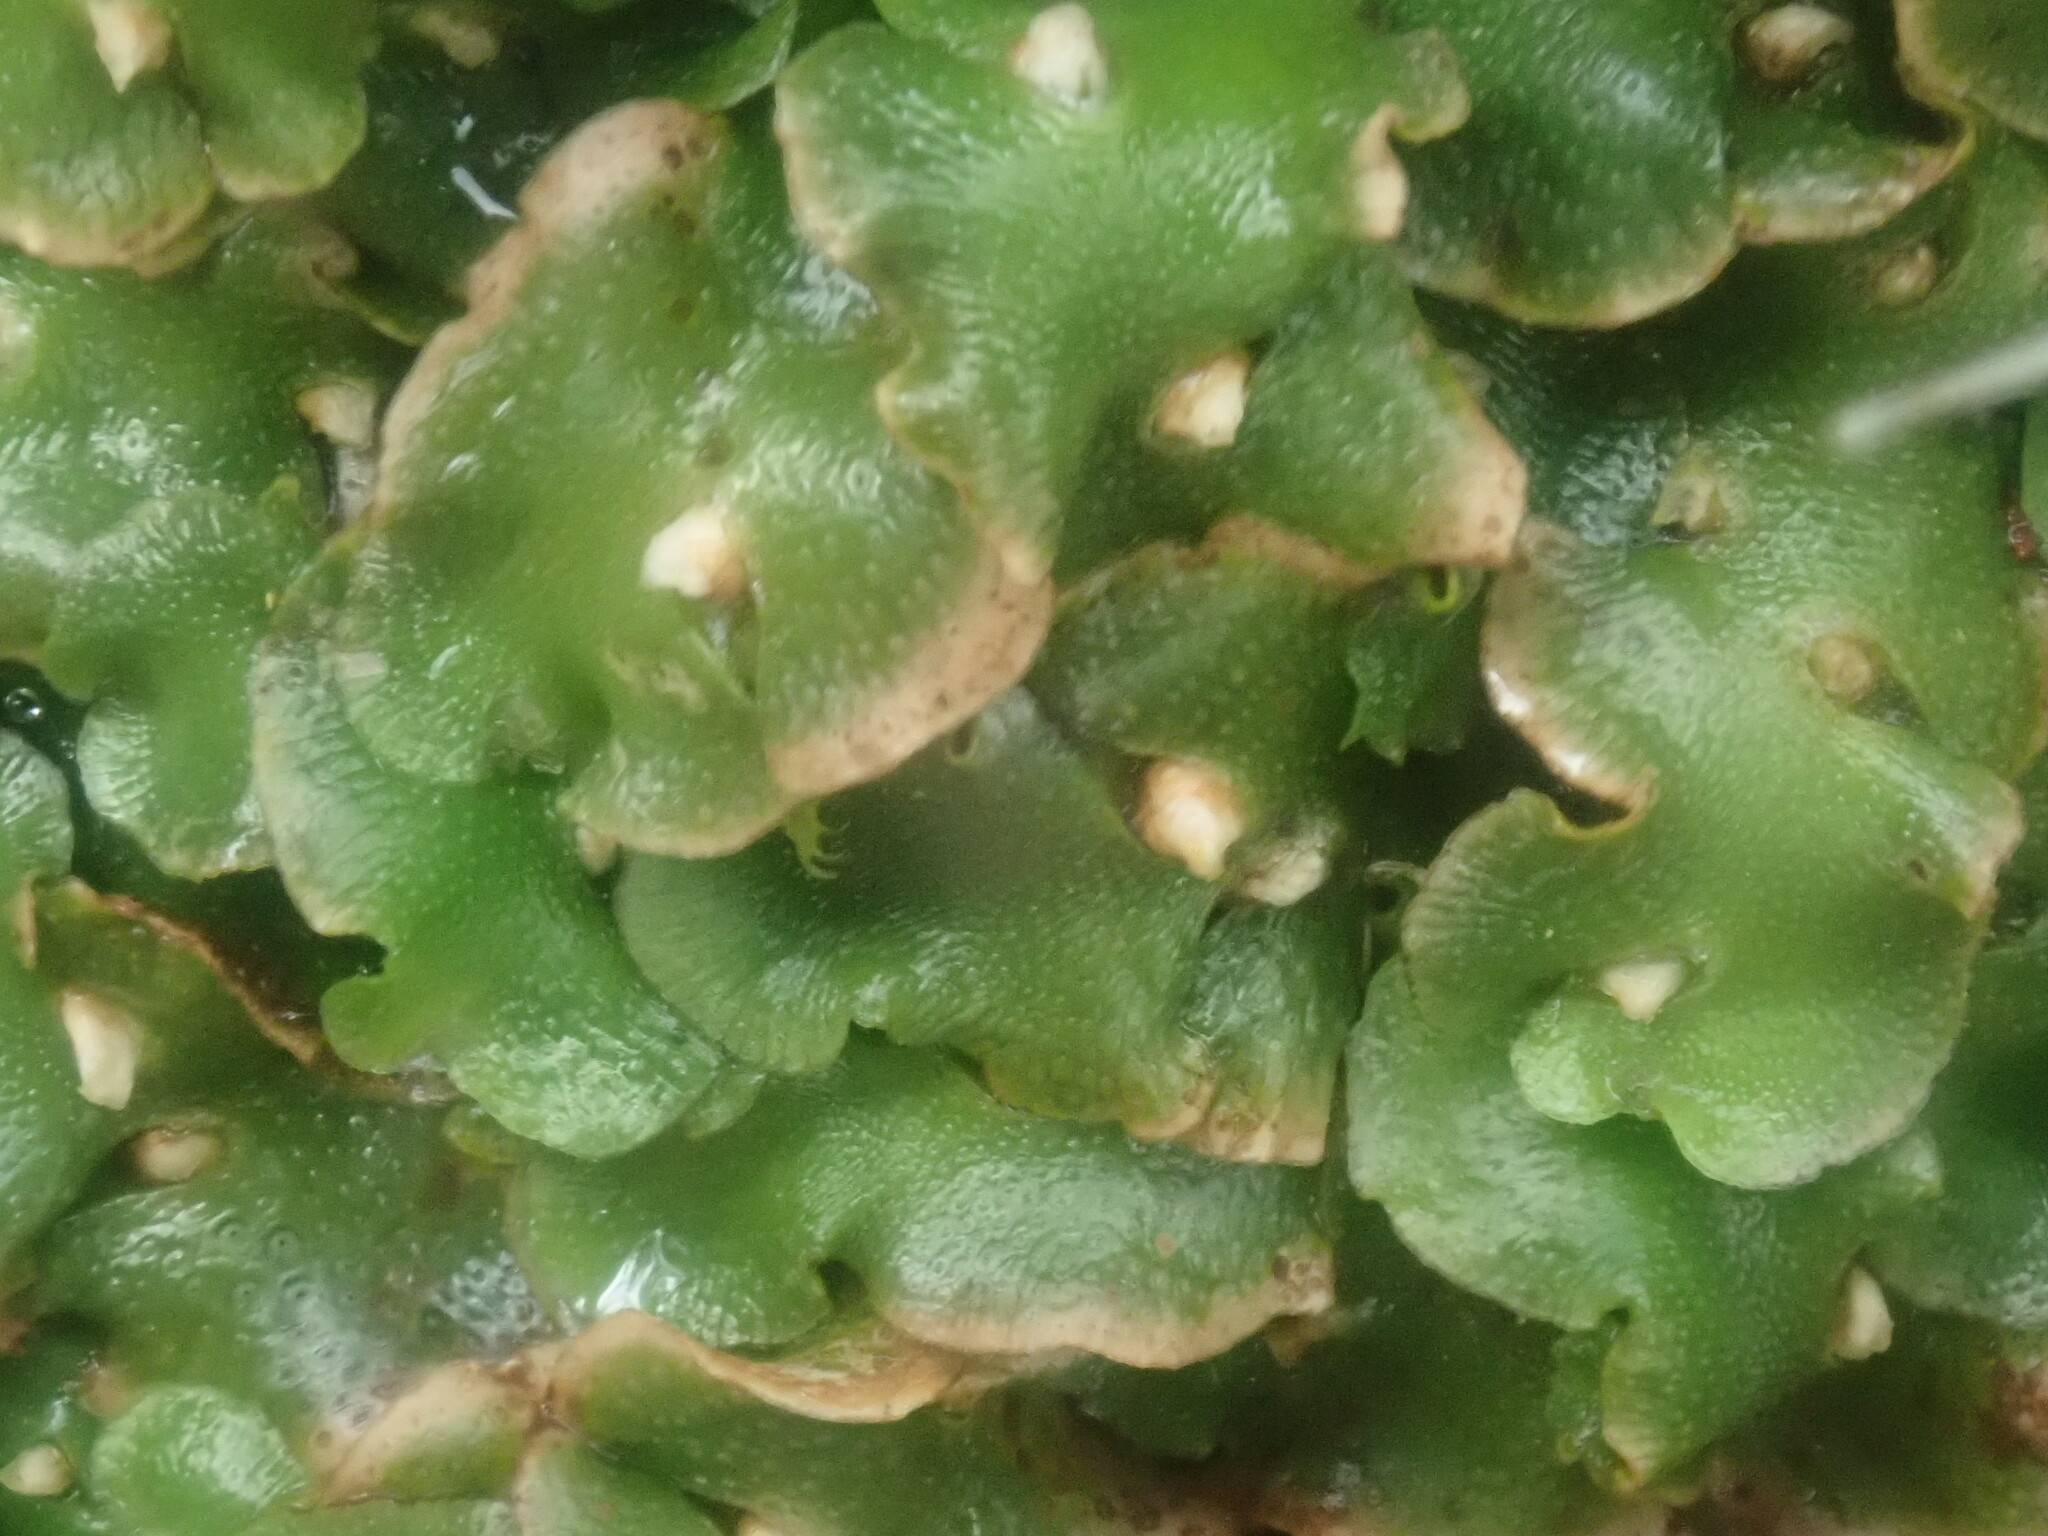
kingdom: Plantae
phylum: Marchantiophyta
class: Marchantiopsida
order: Lunulariales
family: Lunulariaceae
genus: Lunularia
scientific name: Lunularia cruciata
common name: Crescent-cup liverwort
